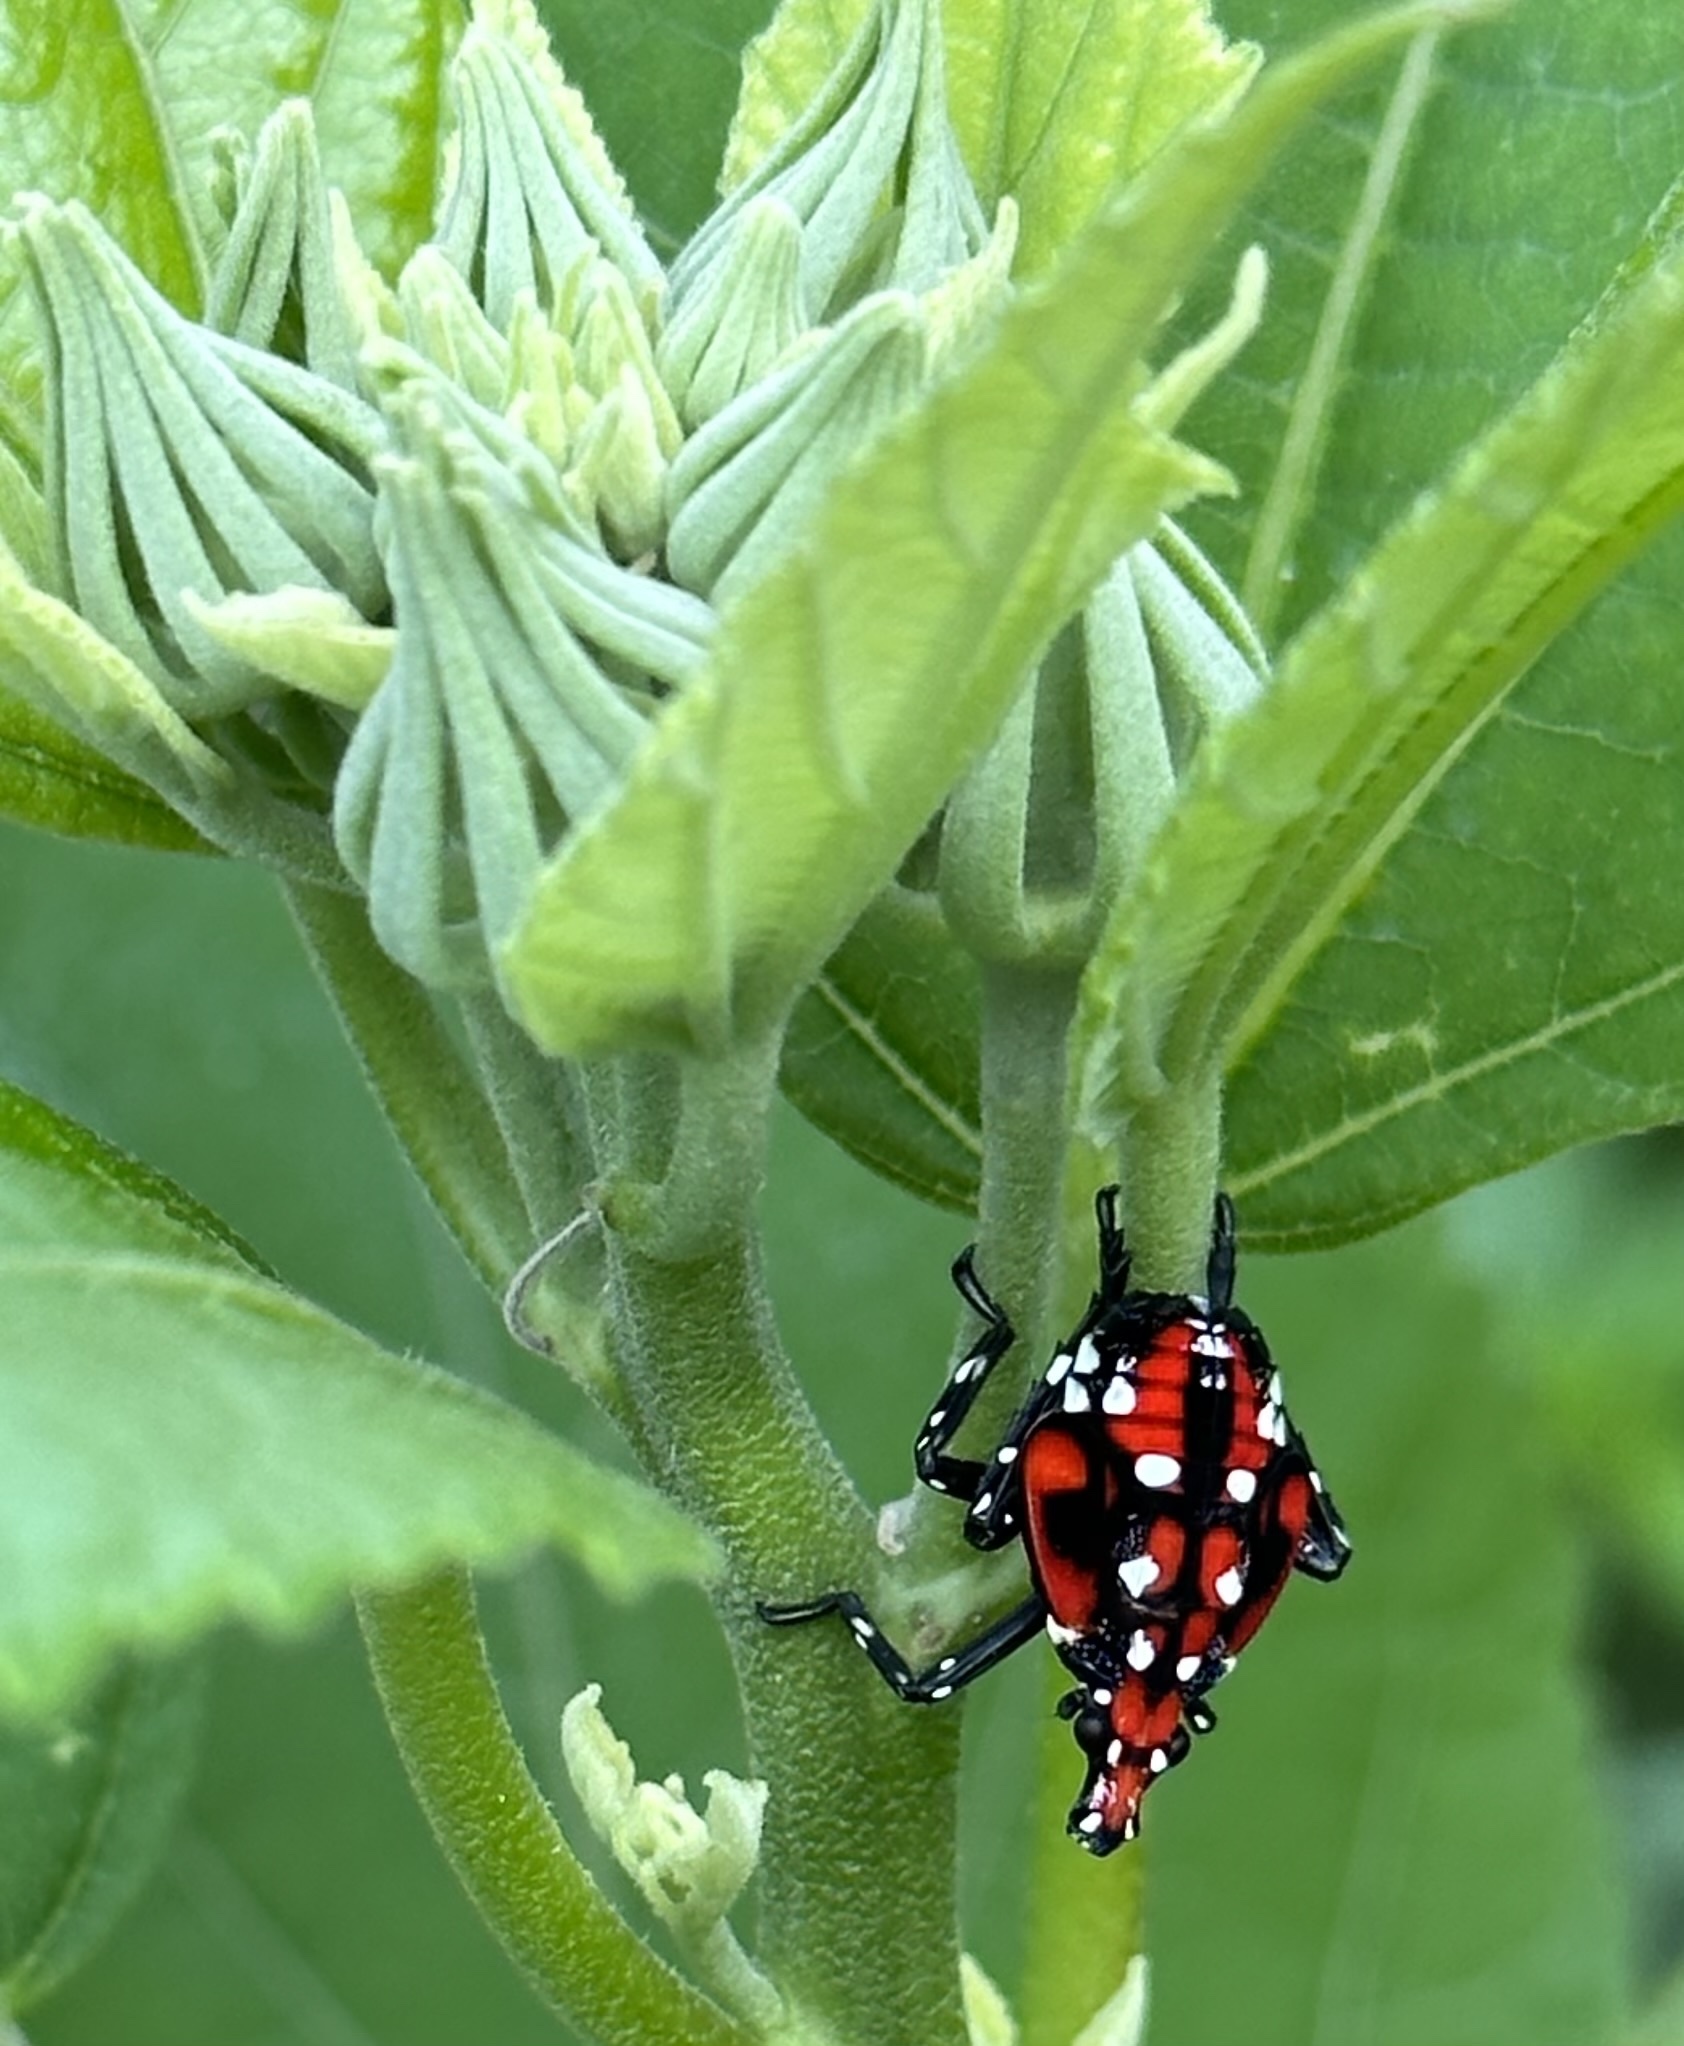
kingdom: Animalia
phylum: Arthropoda
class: Insecta
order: Hemiptera
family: Fulgoridae
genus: Lycorma
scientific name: Lycorma delicatula
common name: Spotted lanternfly
